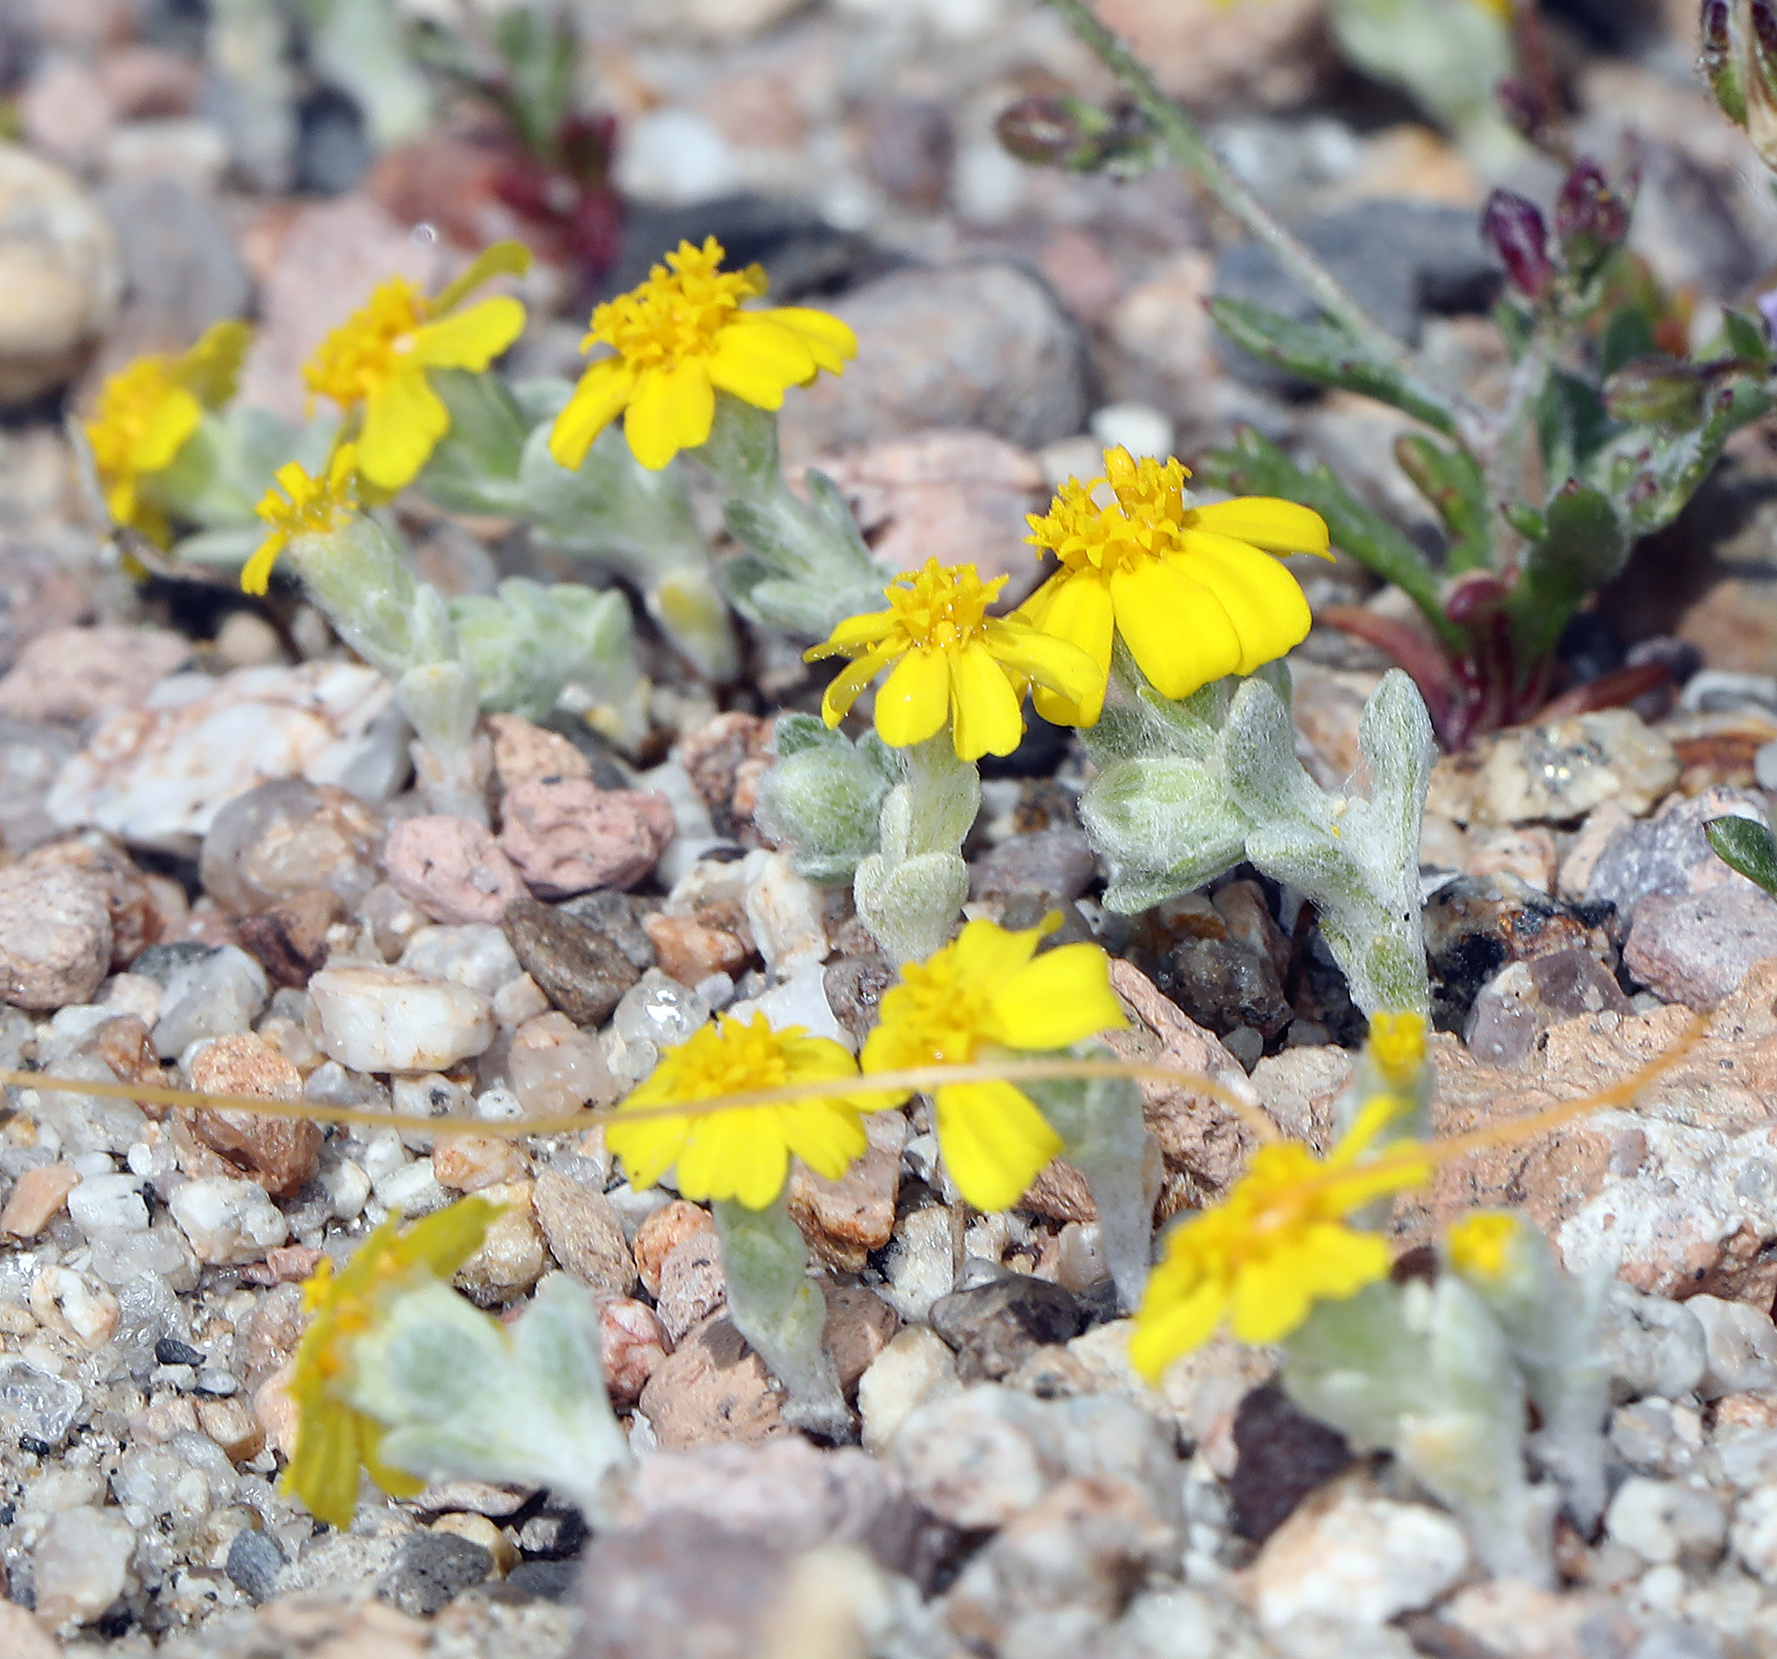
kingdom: Plantae
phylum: Tracheophyta
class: Magnoliopsida
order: Asterales
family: Asteraceae
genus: Eriophyllum
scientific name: Eriophyllum wallacei
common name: Wallace's woolly daisy
